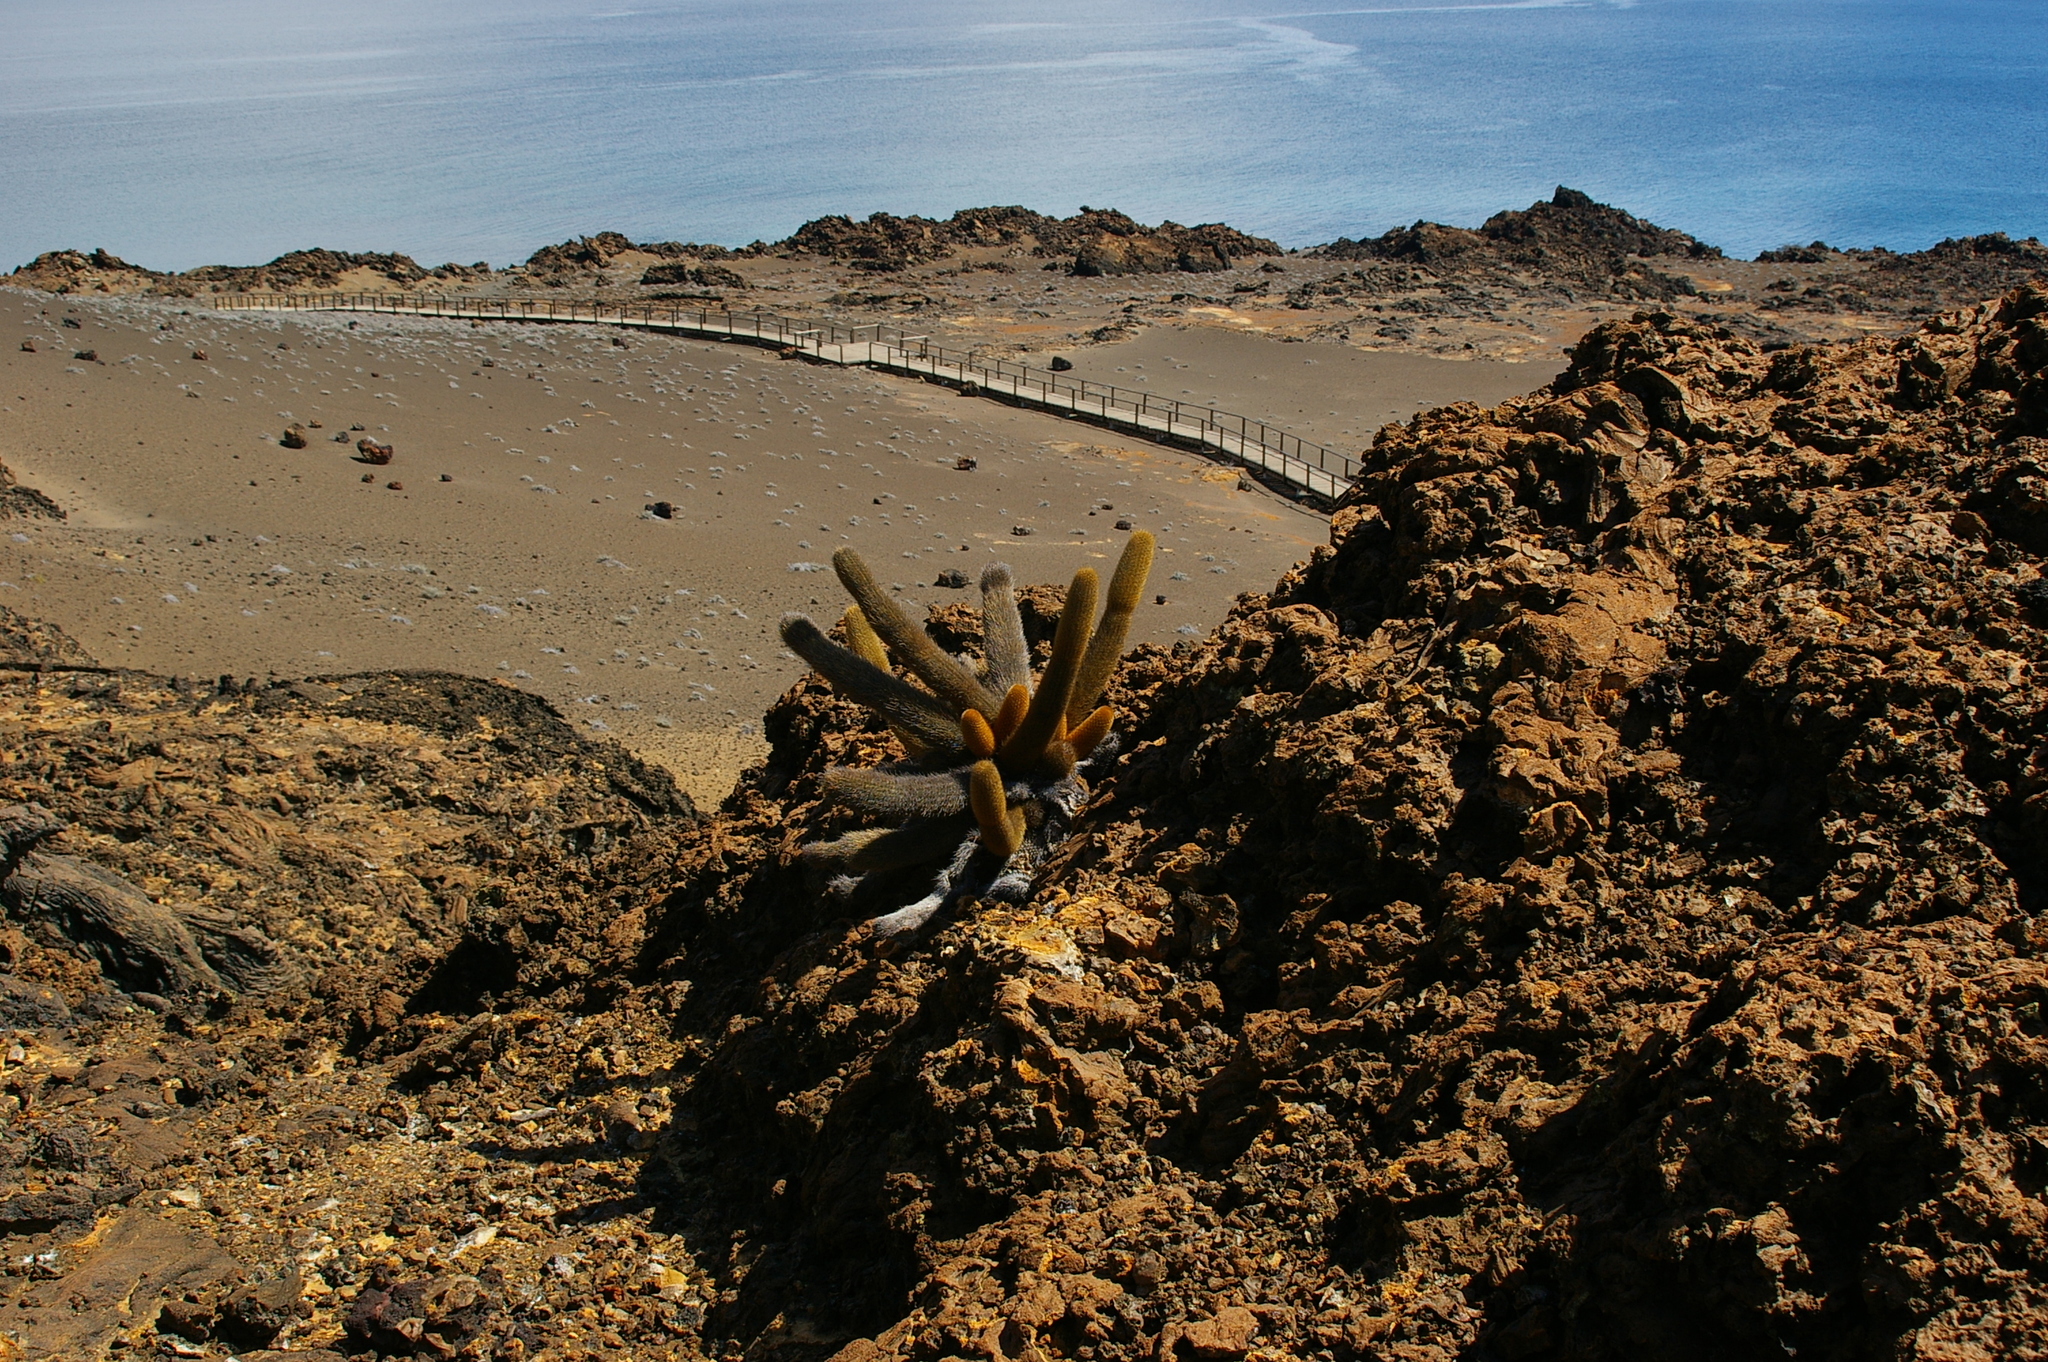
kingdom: Plantae
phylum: Tracheophyta
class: Magnoliopsida
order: Caryophyllales
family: Cactaceae
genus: Brachycereus
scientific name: Brachycereus nesioticus
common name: Lava cactus
